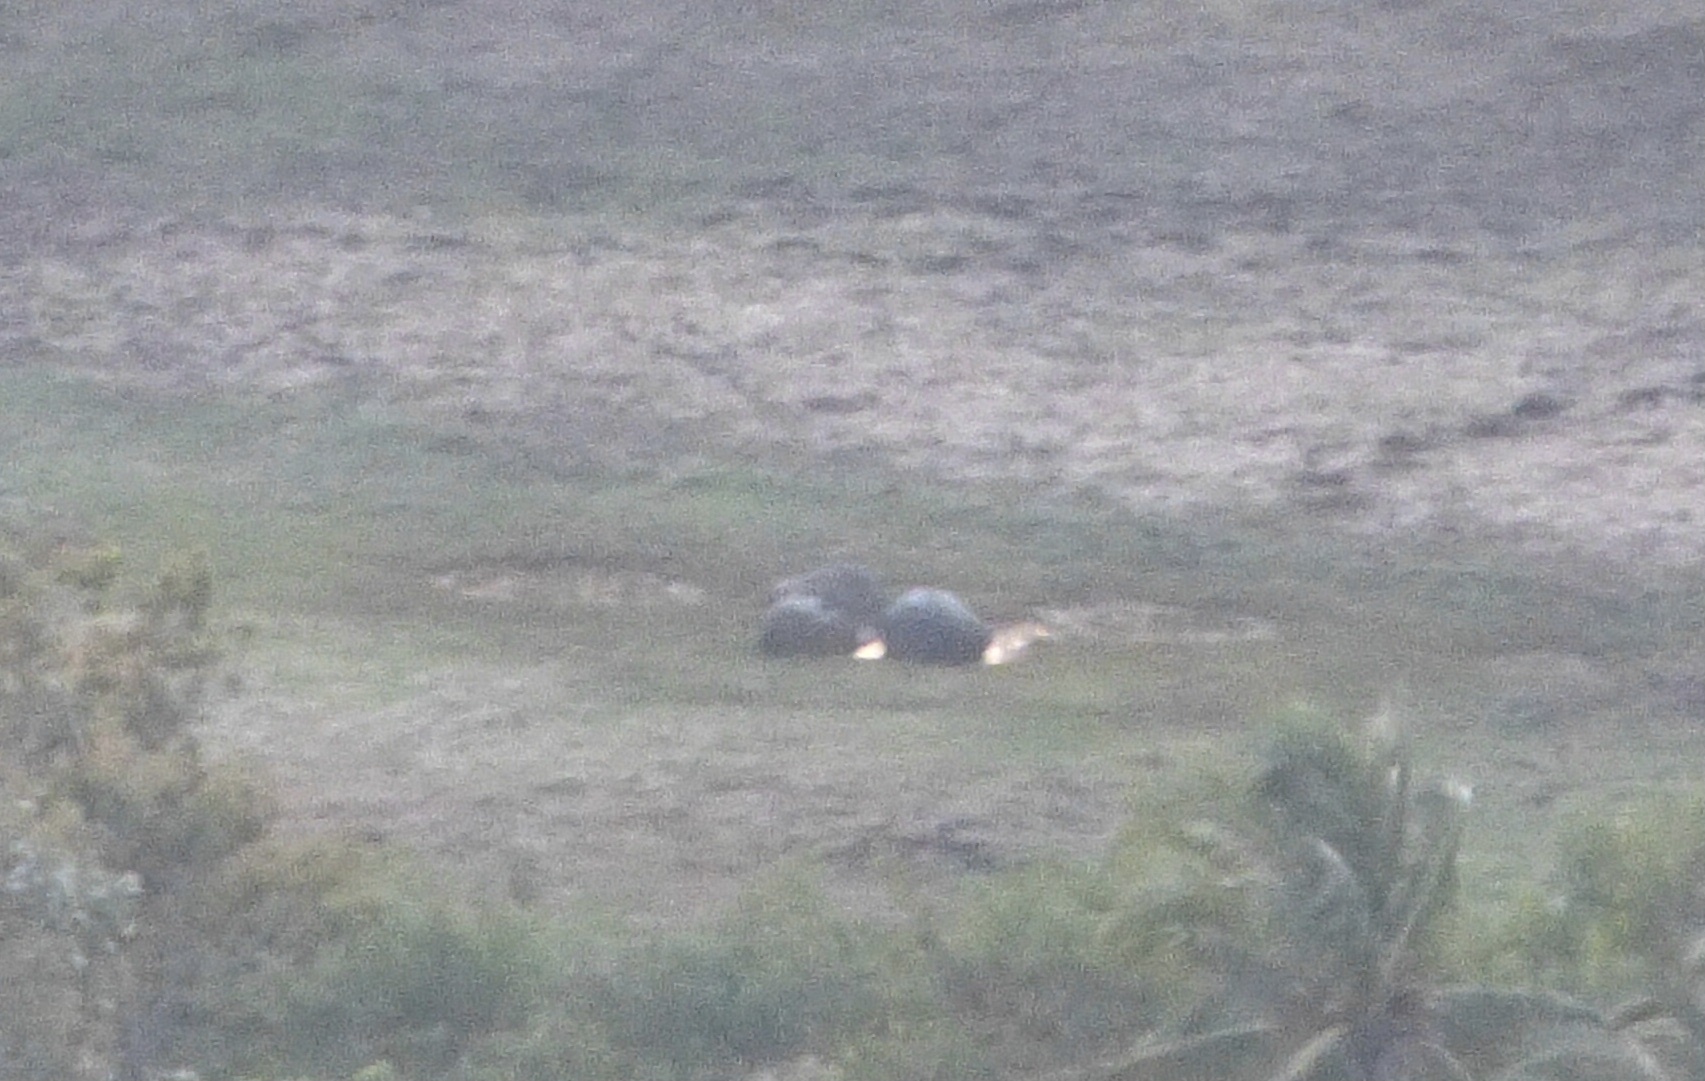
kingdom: Animalia
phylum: Chordata
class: Mammalia
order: Proboscidea
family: Elephantidae
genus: Elephas
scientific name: Elephas maximus
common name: Asian elephant
